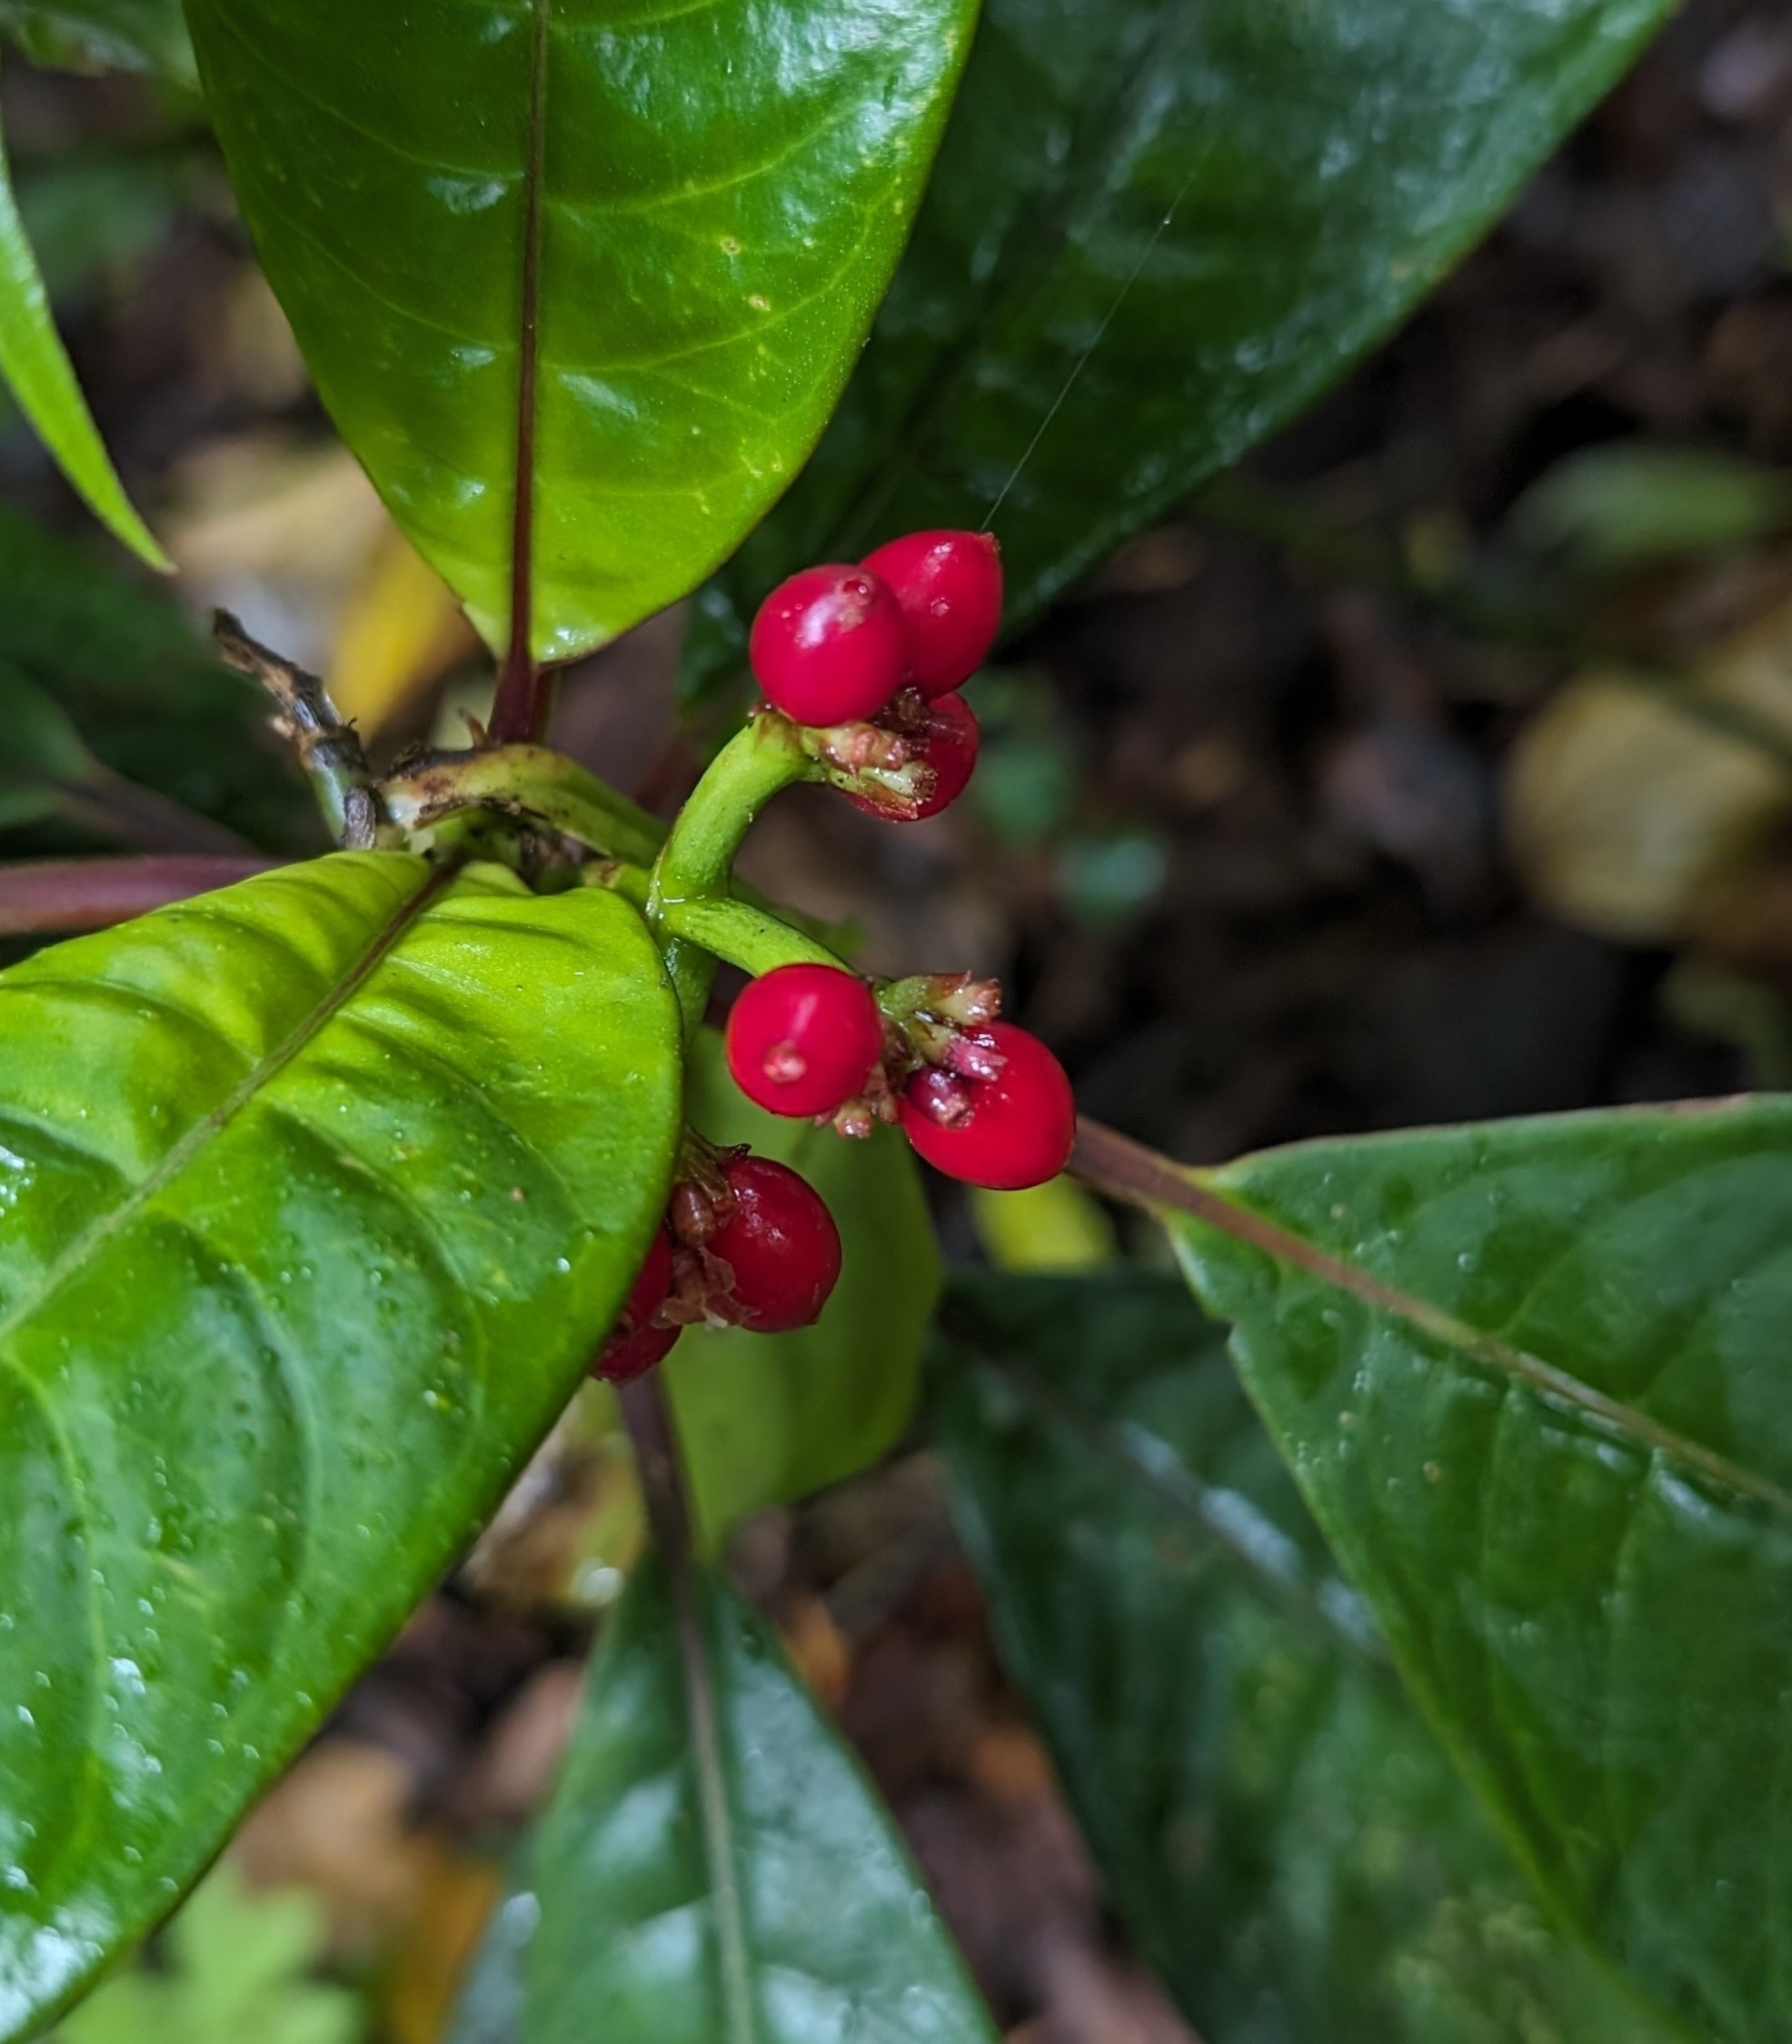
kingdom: Plantae
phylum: Tracheophyta
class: Magnoliopsida
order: Gentianales
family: Rubiaceae
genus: Notopleura
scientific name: Notopleura uliginosa
